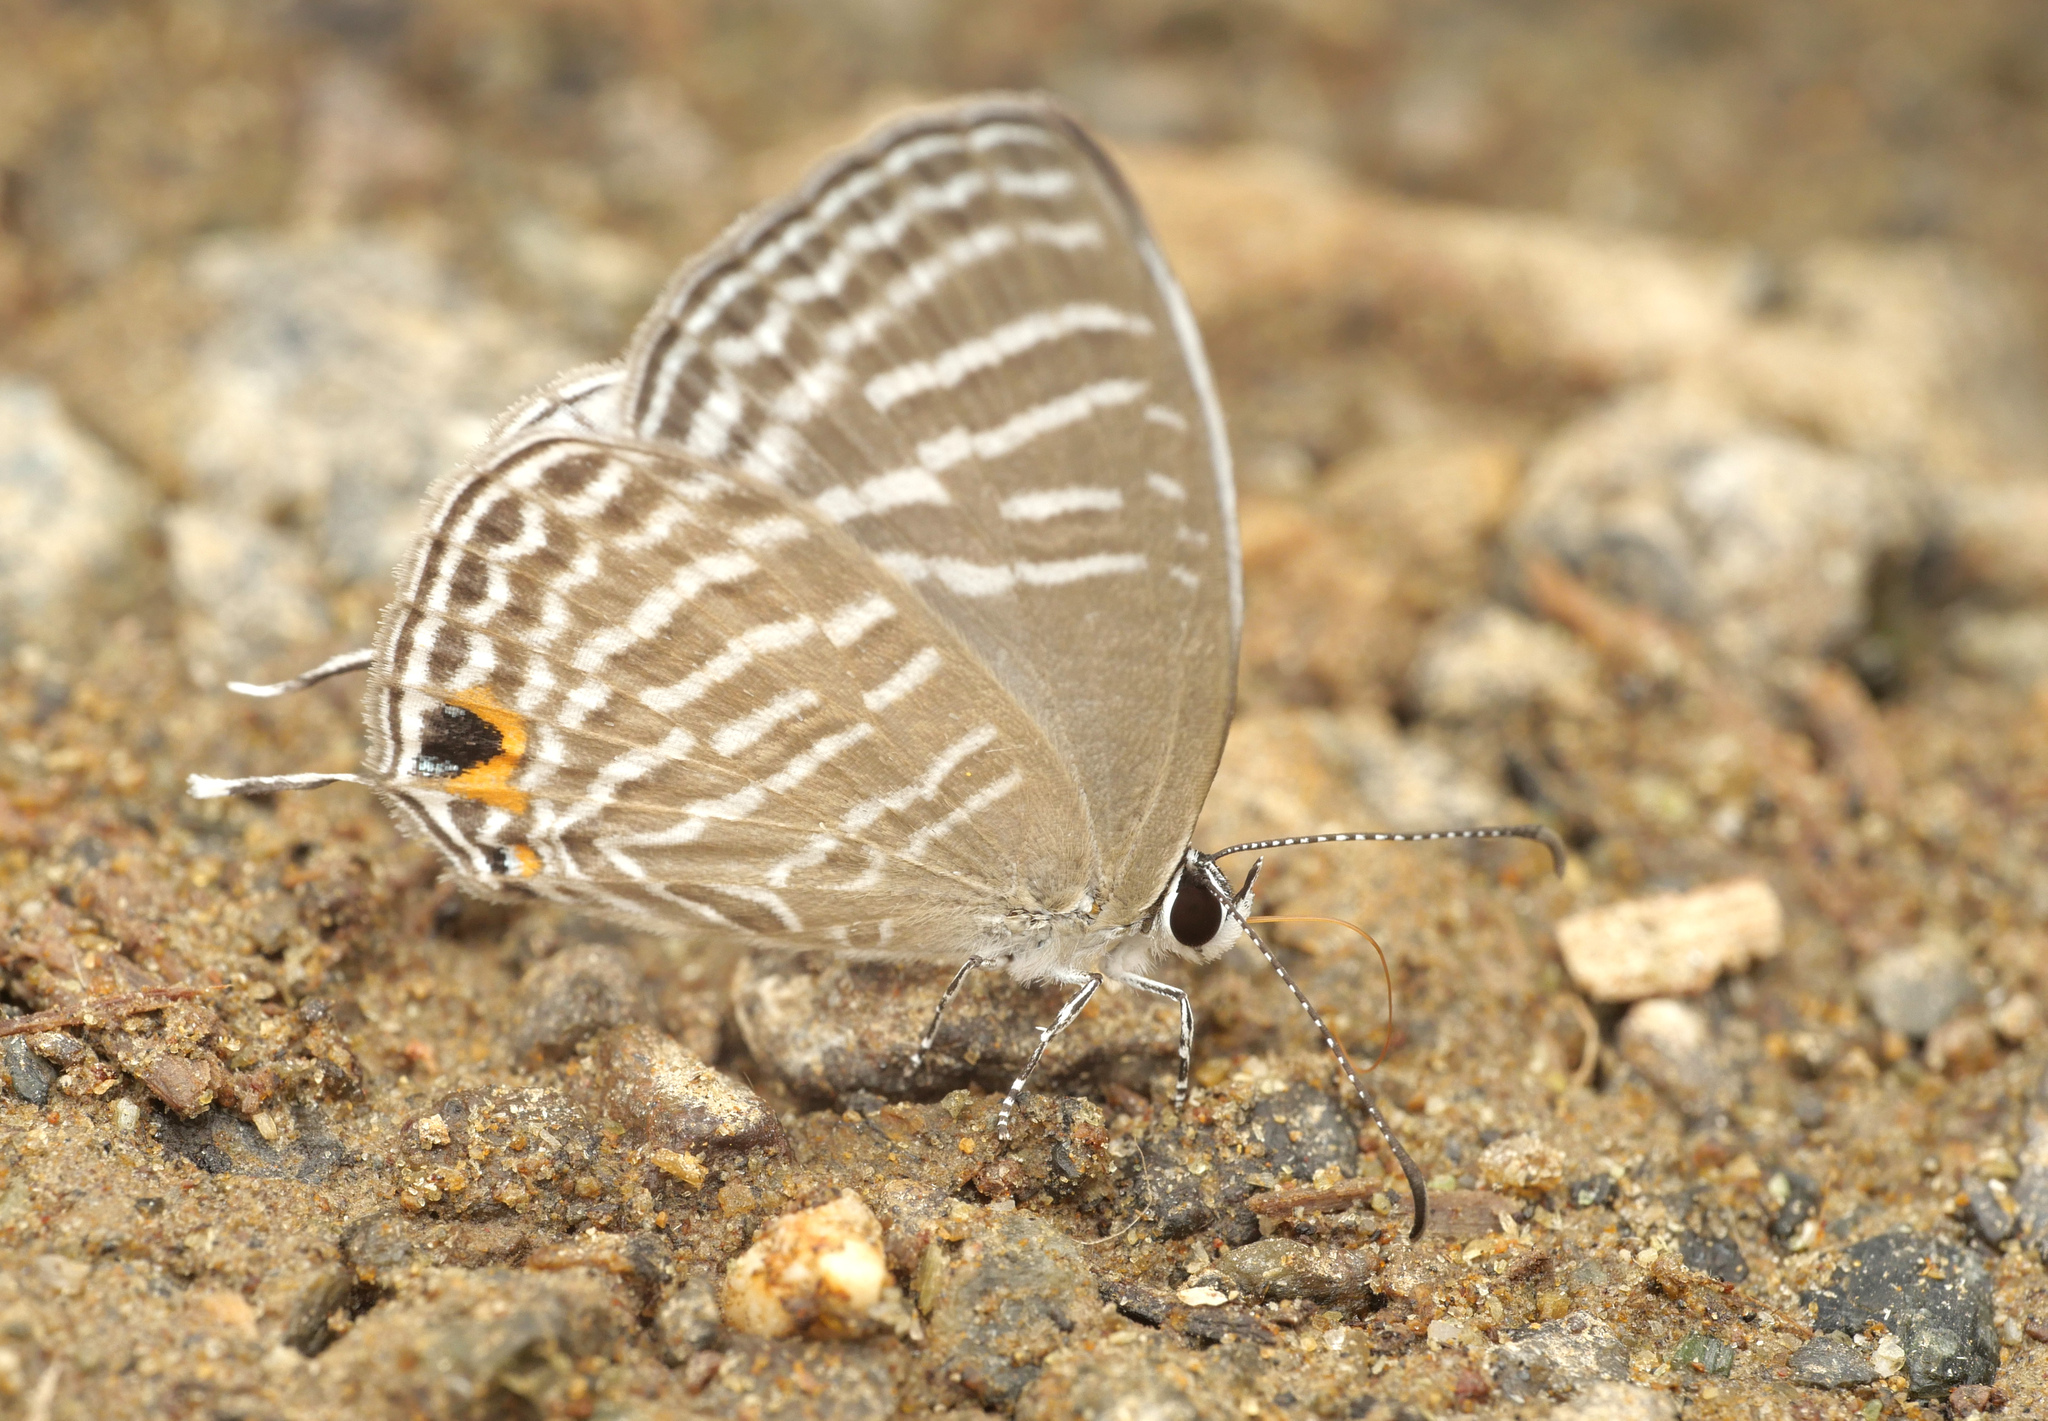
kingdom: Animalia
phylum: Arthropoda
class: Insecta
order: Lepidoptera
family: Lycaenidae
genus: Jamides
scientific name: Jamides celeno
